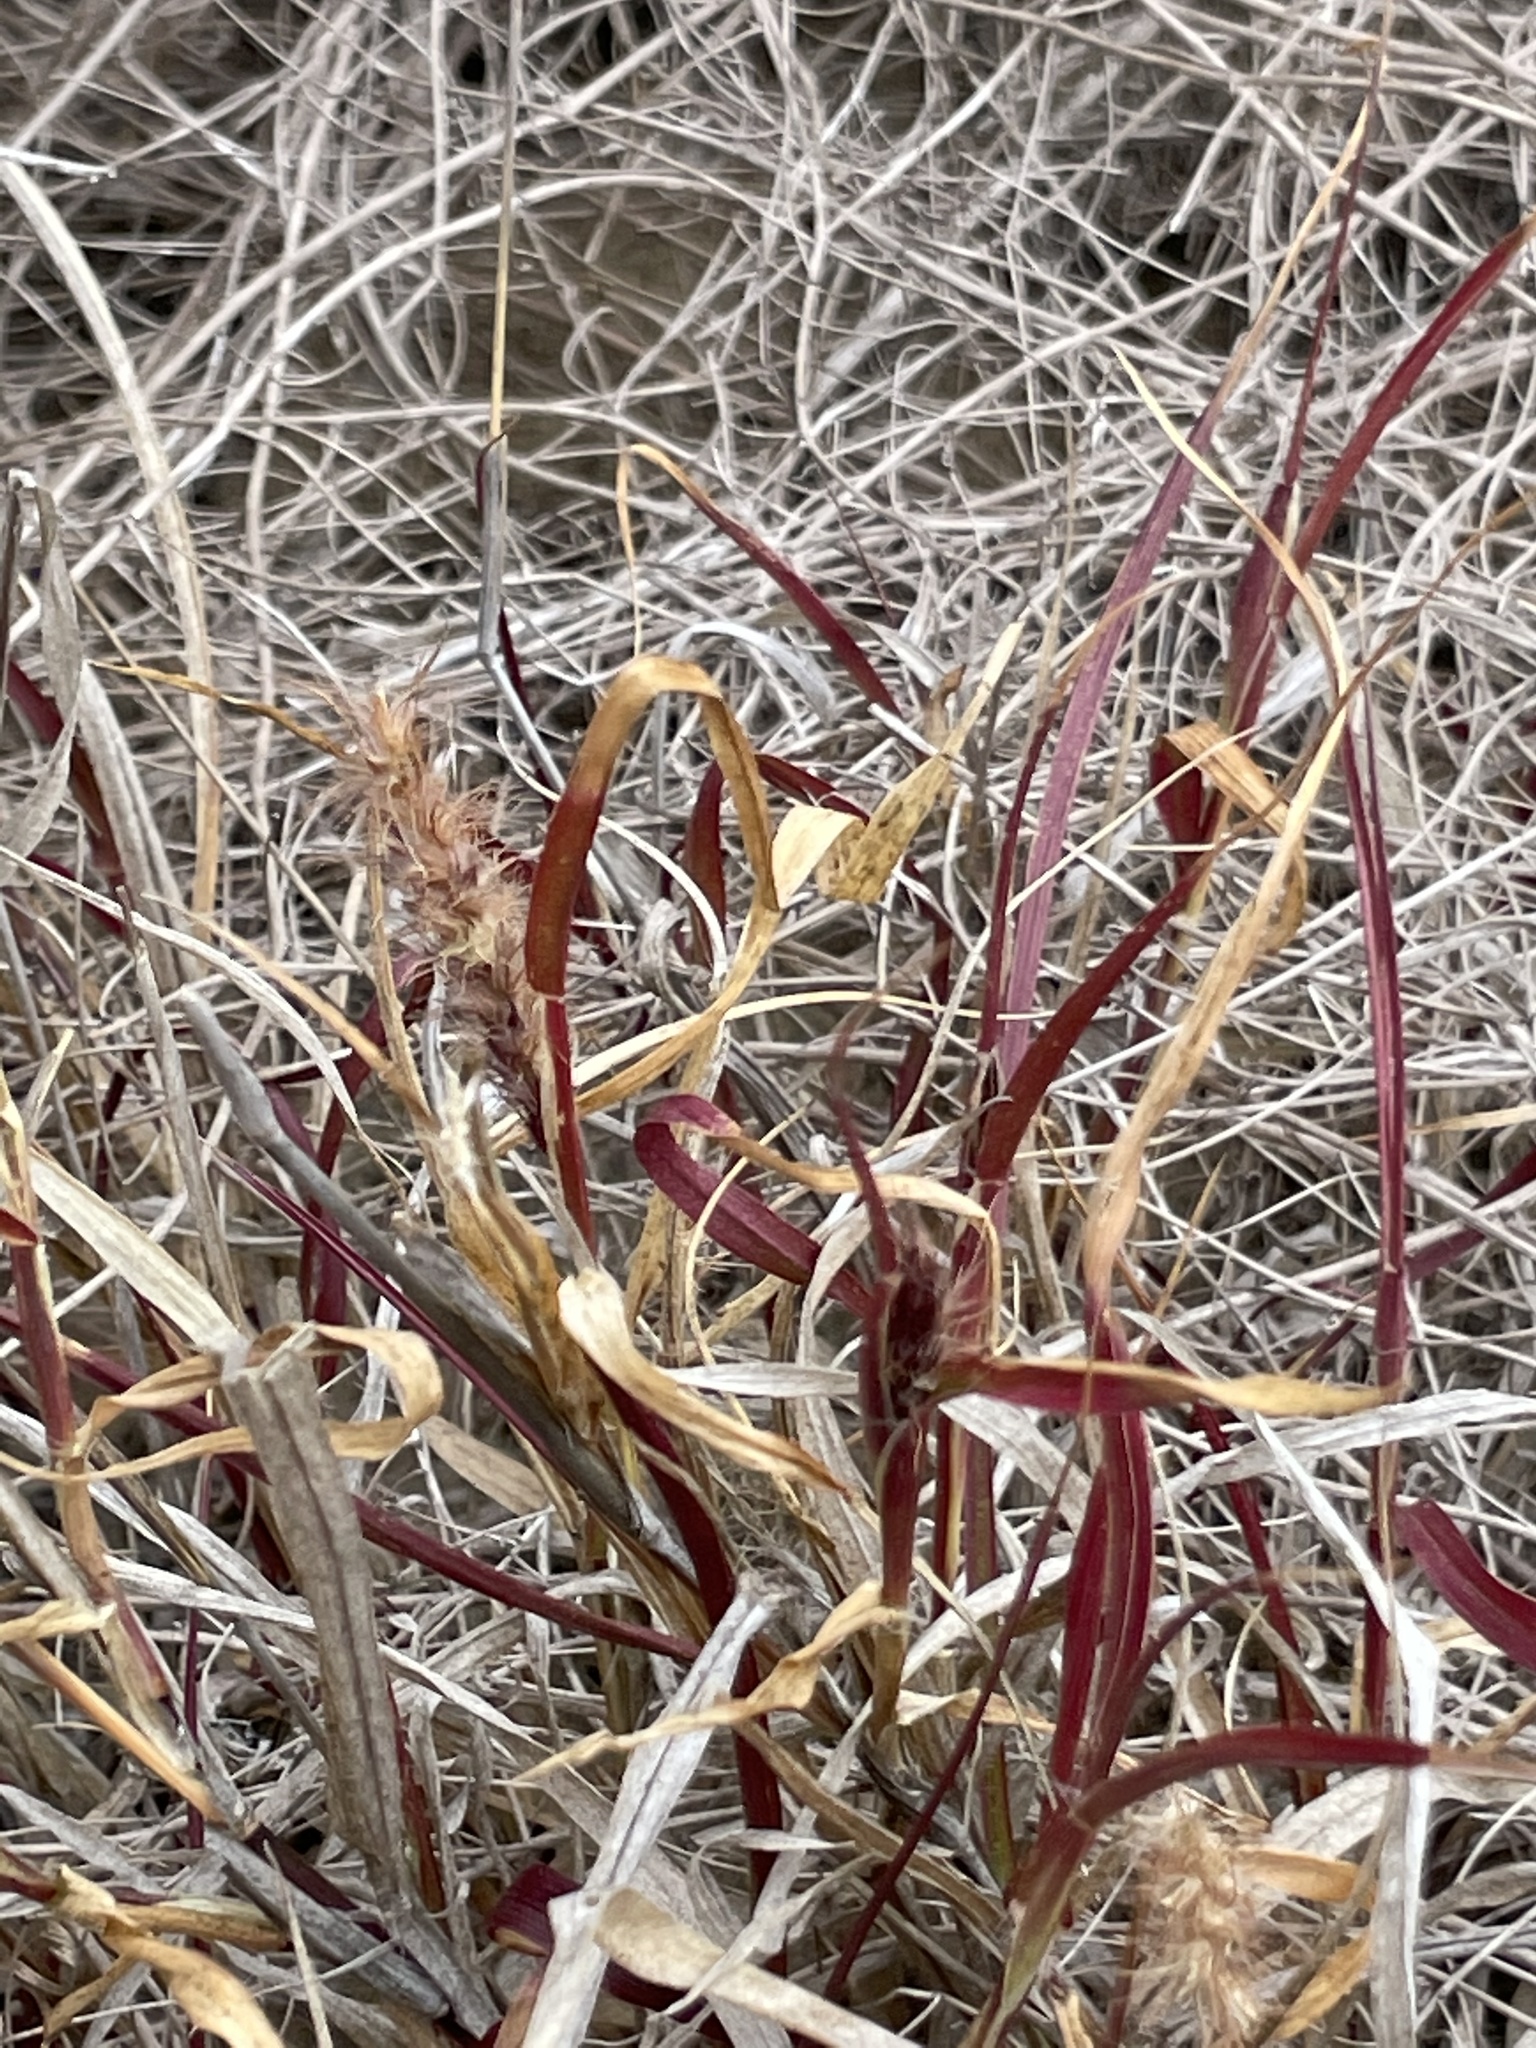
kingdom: Plantae
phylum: Tracheophyta
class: Liliopsida
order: Poales
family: Poaceae
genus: Cenchrus
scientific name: Cenchrus ciliaris
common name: Buffelgrass
